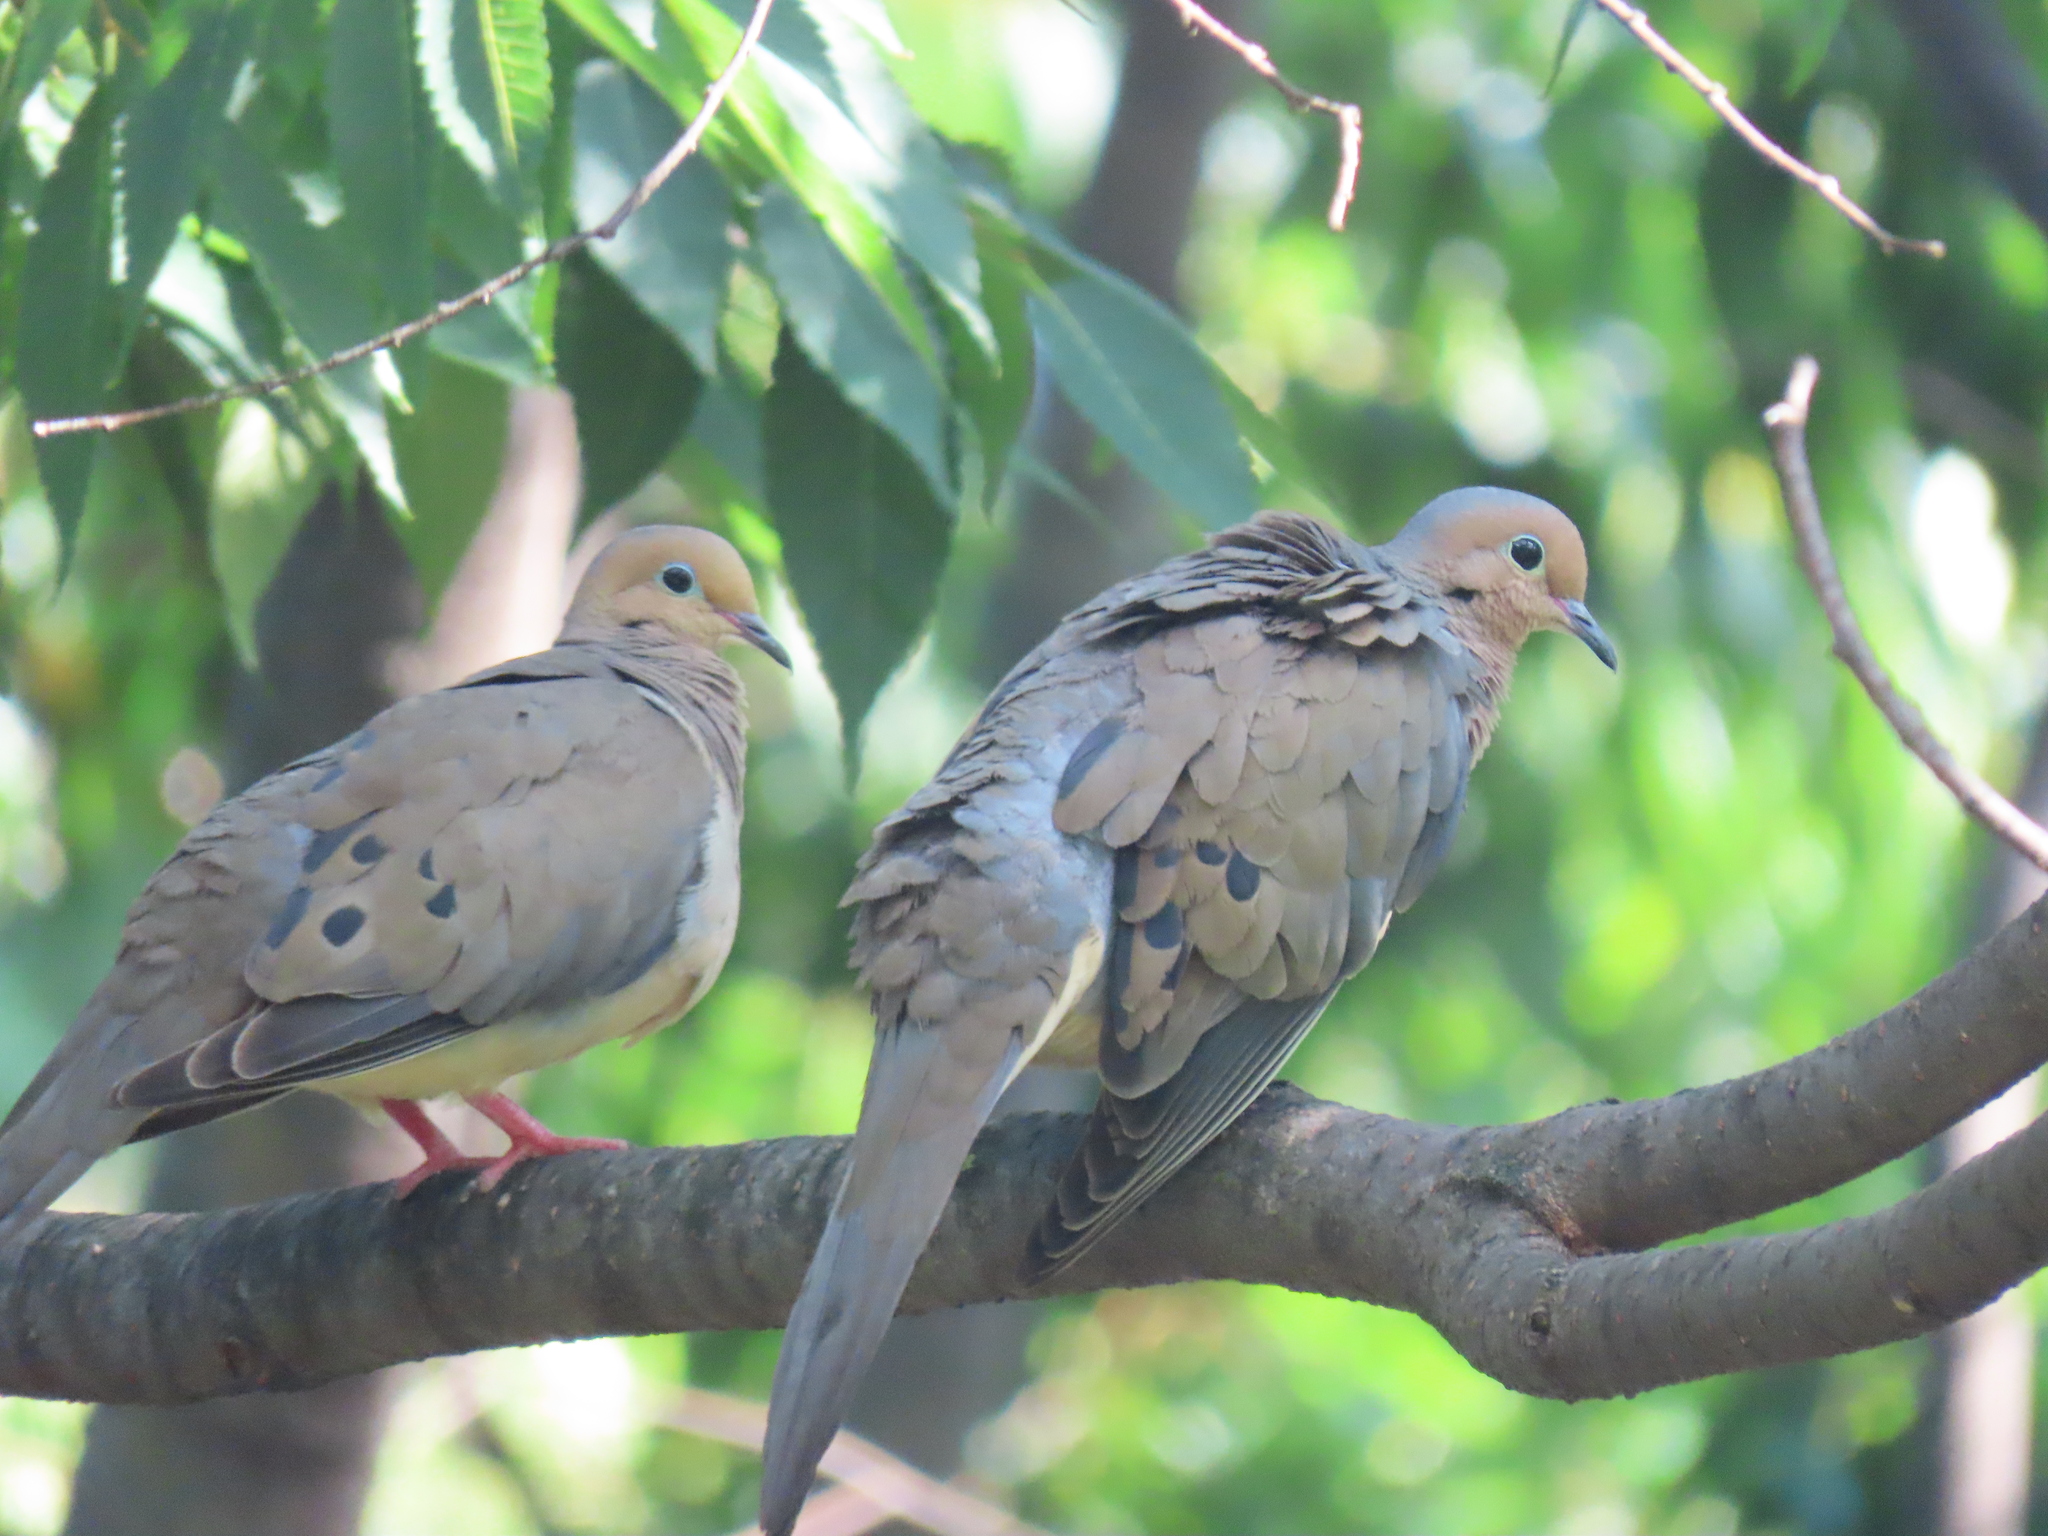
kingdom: Animalia
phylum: Chordata
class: Aves
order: Columbiformes
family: Columbidae
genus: Zenaida
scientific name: Zenaida macroura
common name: Mourning dove
